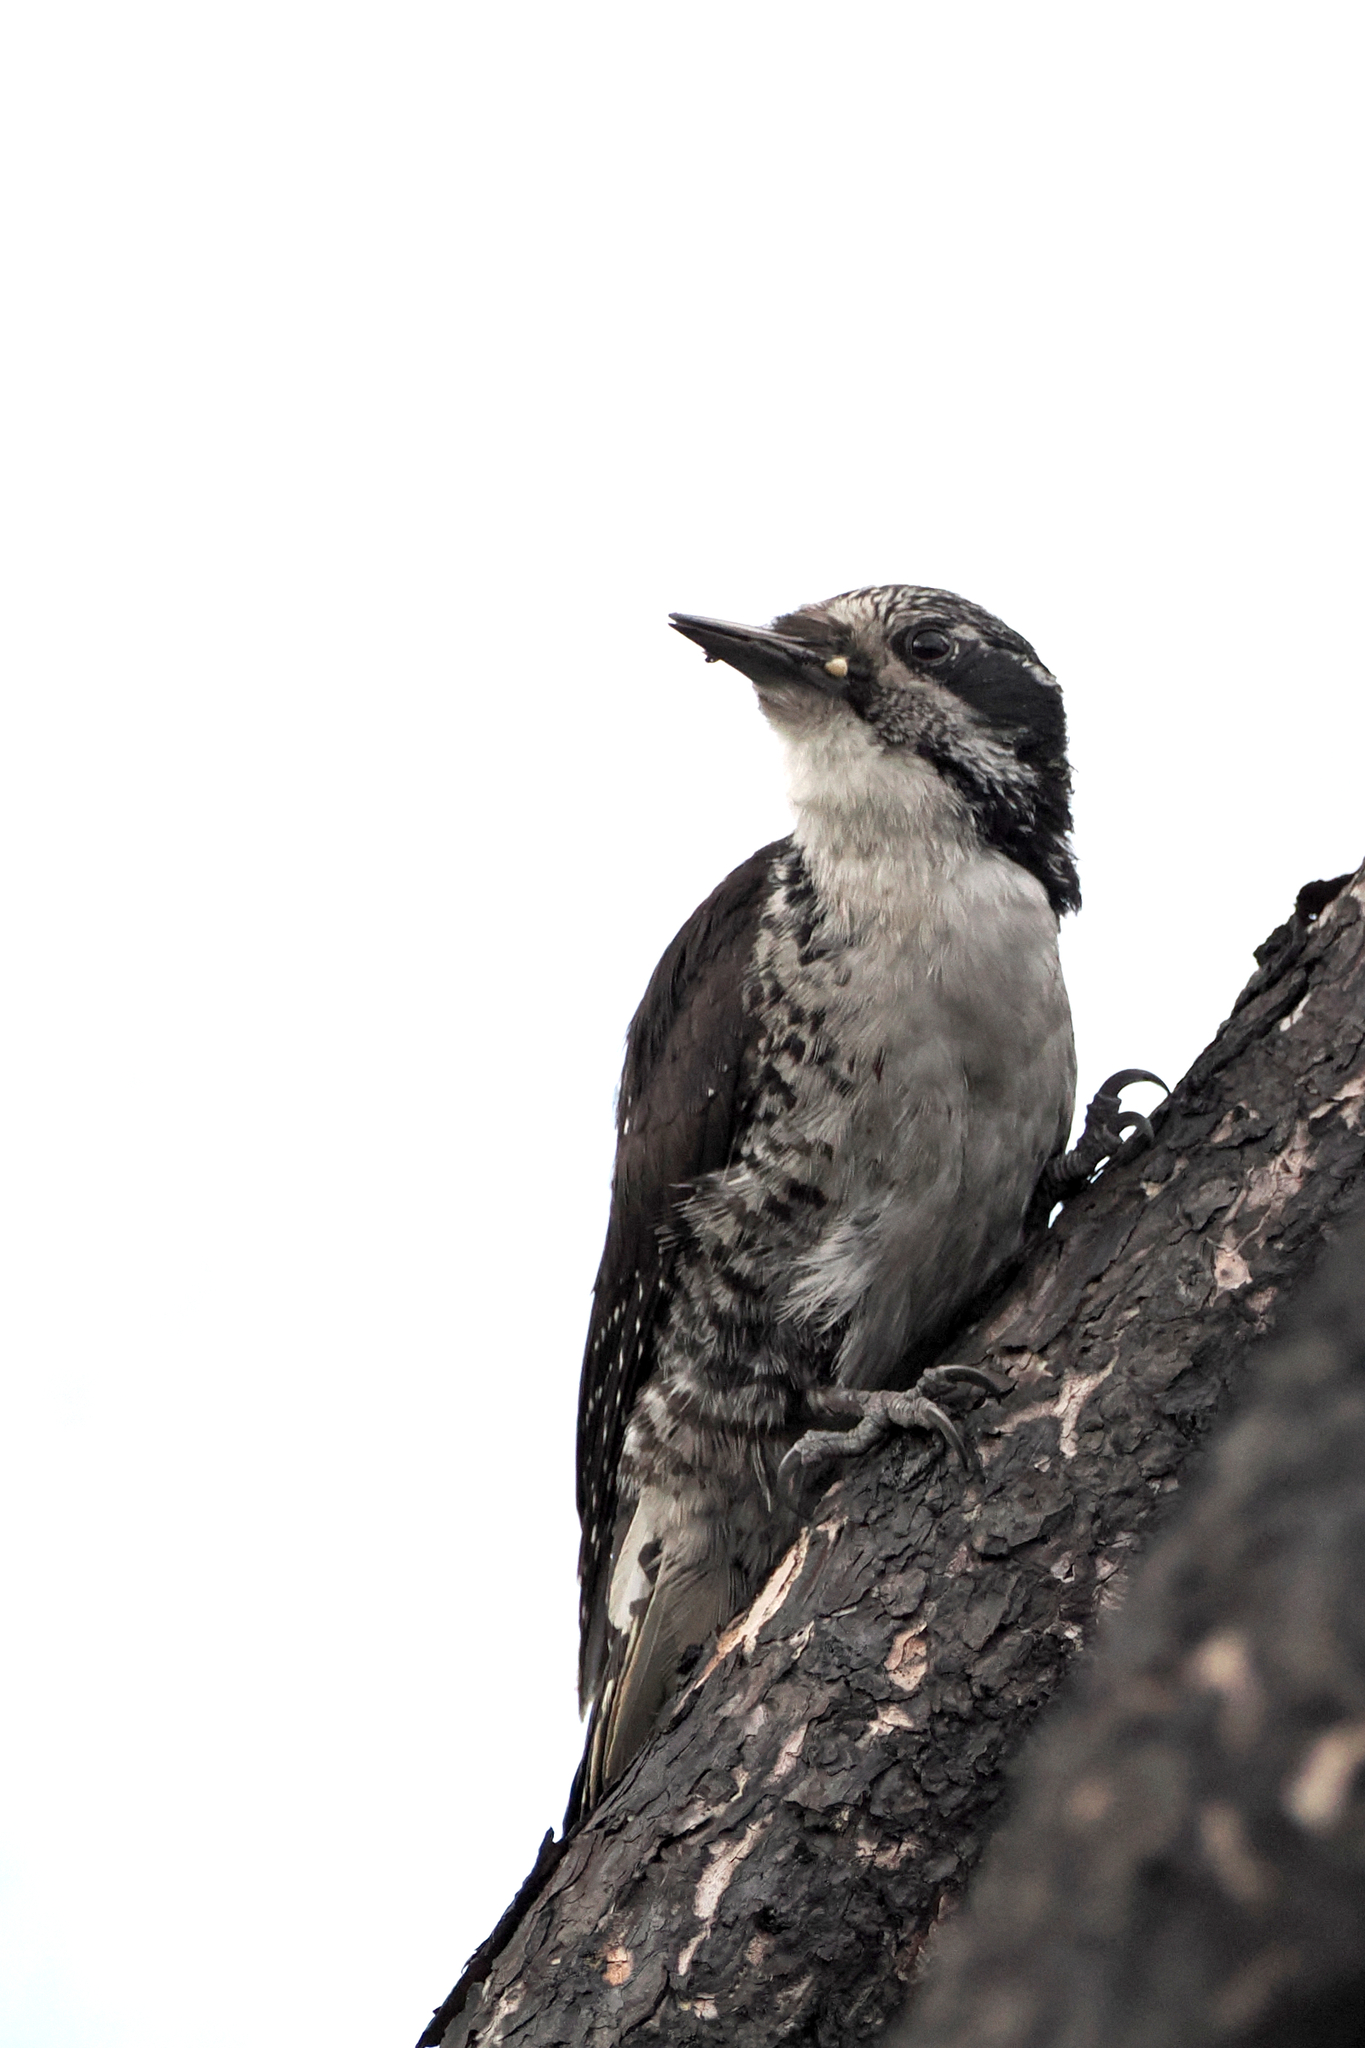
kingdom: Animalia
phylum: Chordata
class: Aves
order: Piciformes
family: Picidae
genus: Picoides
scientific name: Picoides dorsalis
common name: American three-toed woodpecker
